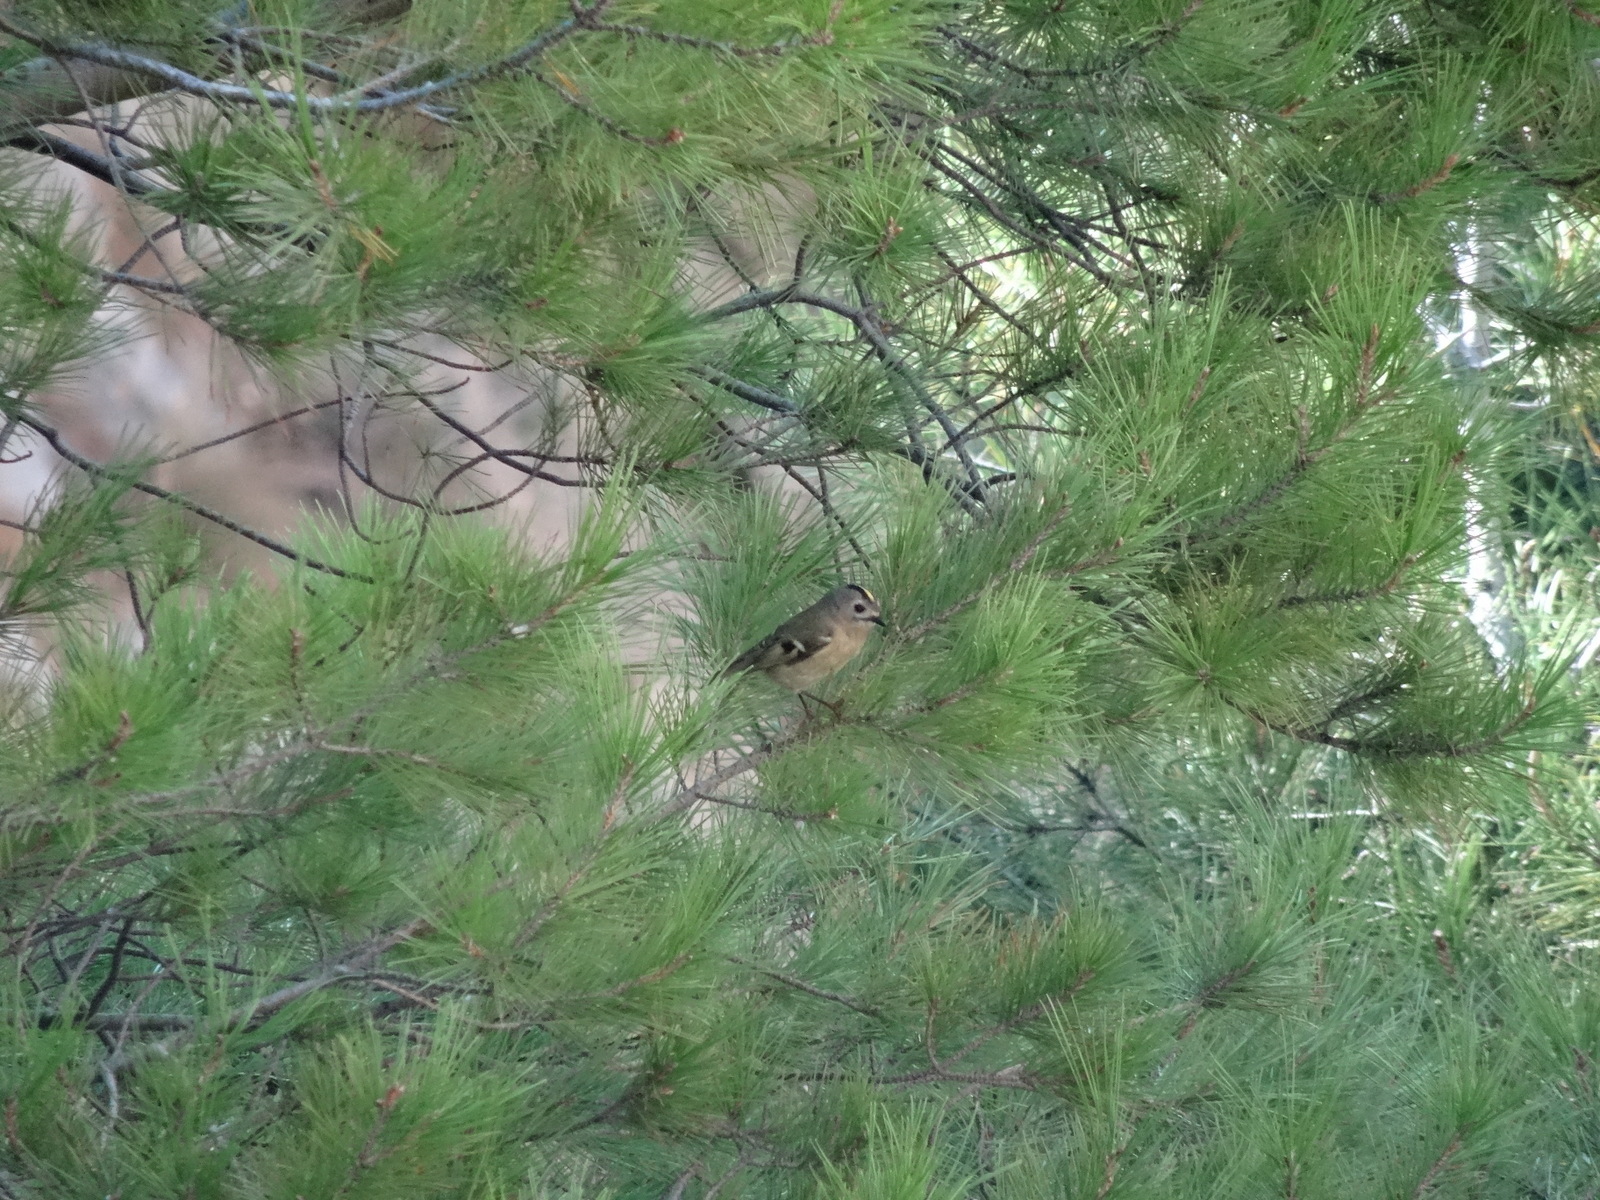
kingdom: Animalia
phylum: Chordata
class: Aves
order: Passeriformes
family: Regulidae
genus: Regulus
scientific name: Regulus regulus
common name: Goldcrest
